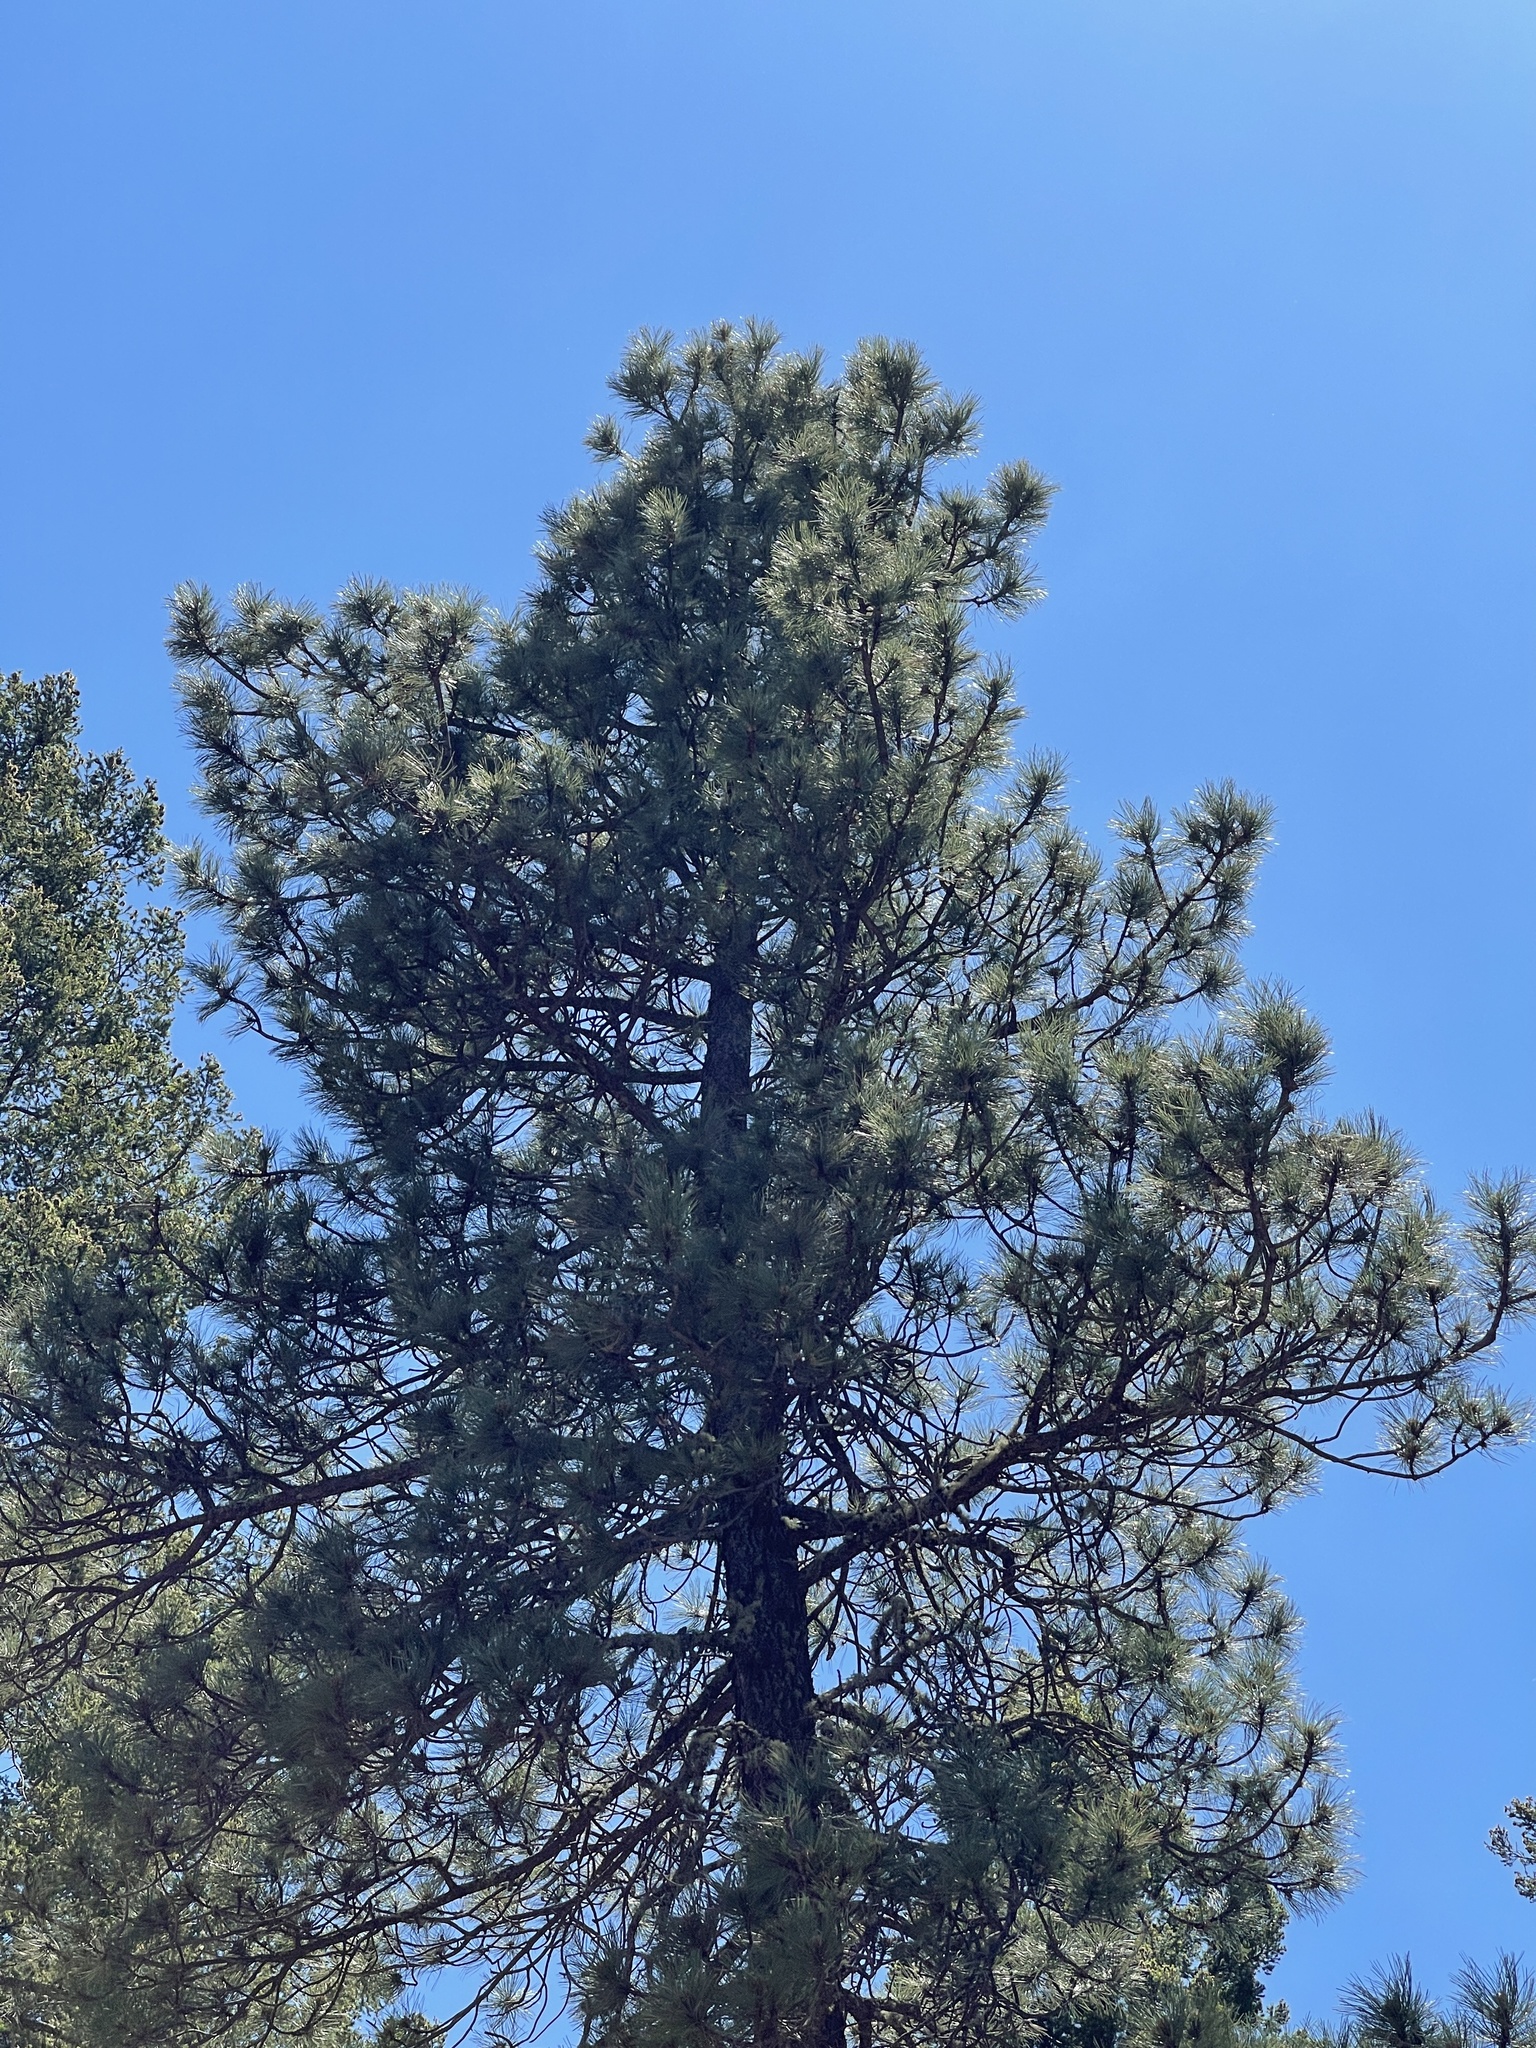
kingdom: Plantae
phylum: Tracheophyta
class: Pinopsida
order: Pinales
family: Pinaceae
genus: Pinus
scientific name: Pinus ponderosa
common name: Western yellow-pine
